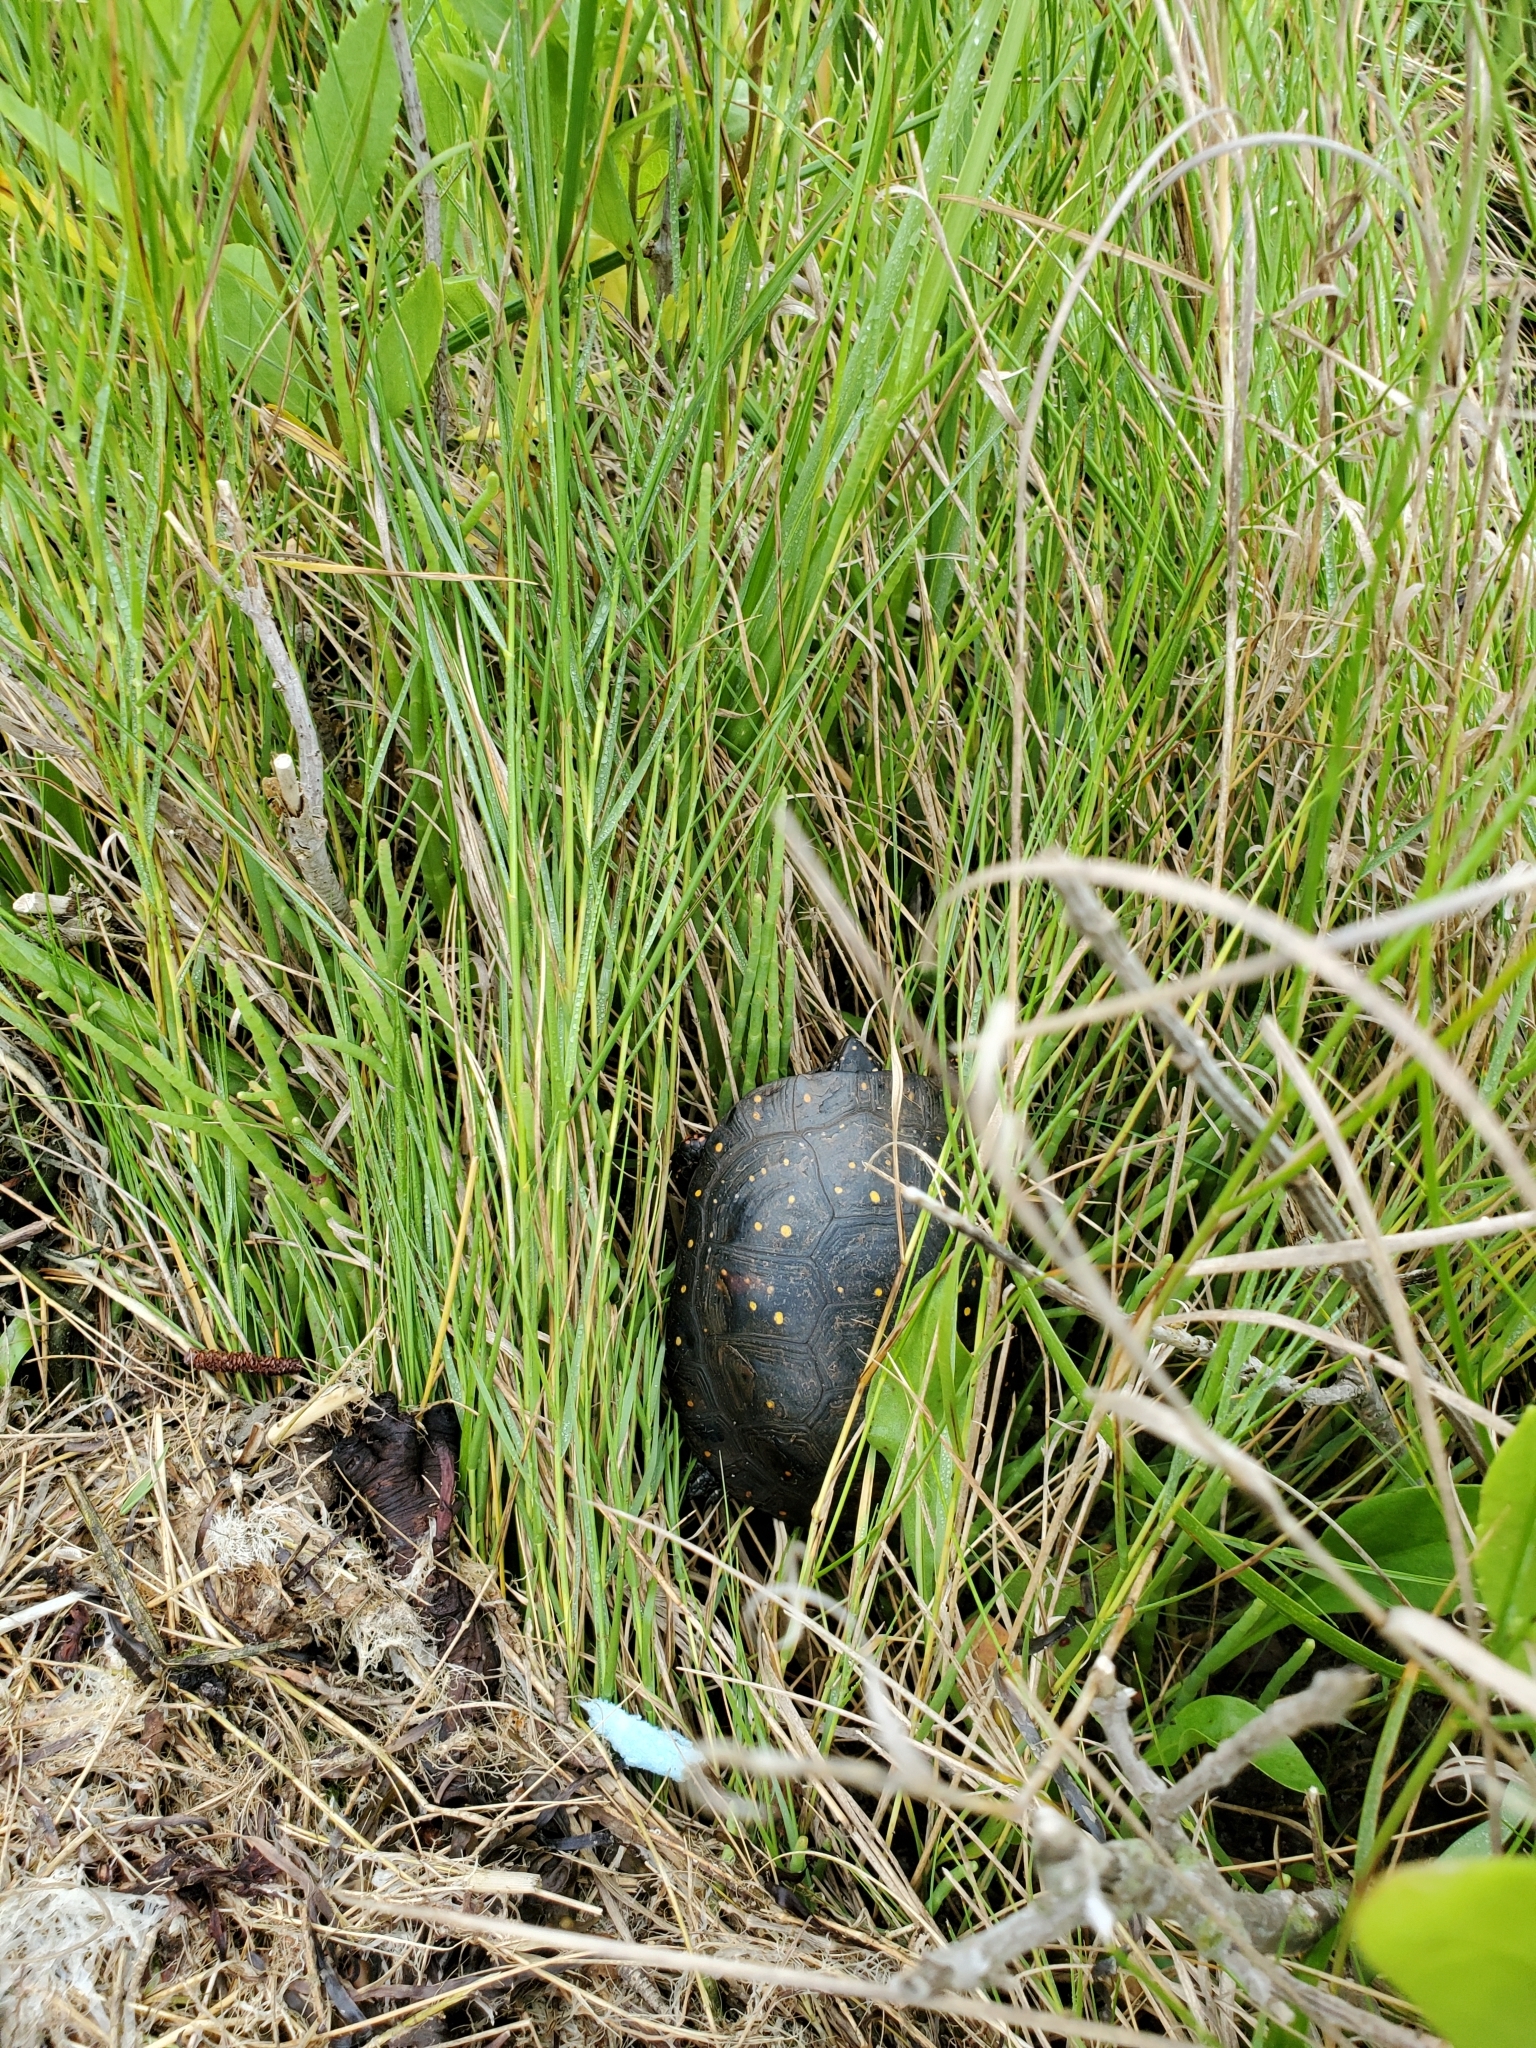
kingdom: Animalia
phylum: Chordata
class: Testudines
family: Emydidae
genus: Clemmys
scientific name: Clemmys guttata
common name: Spotted turtle
